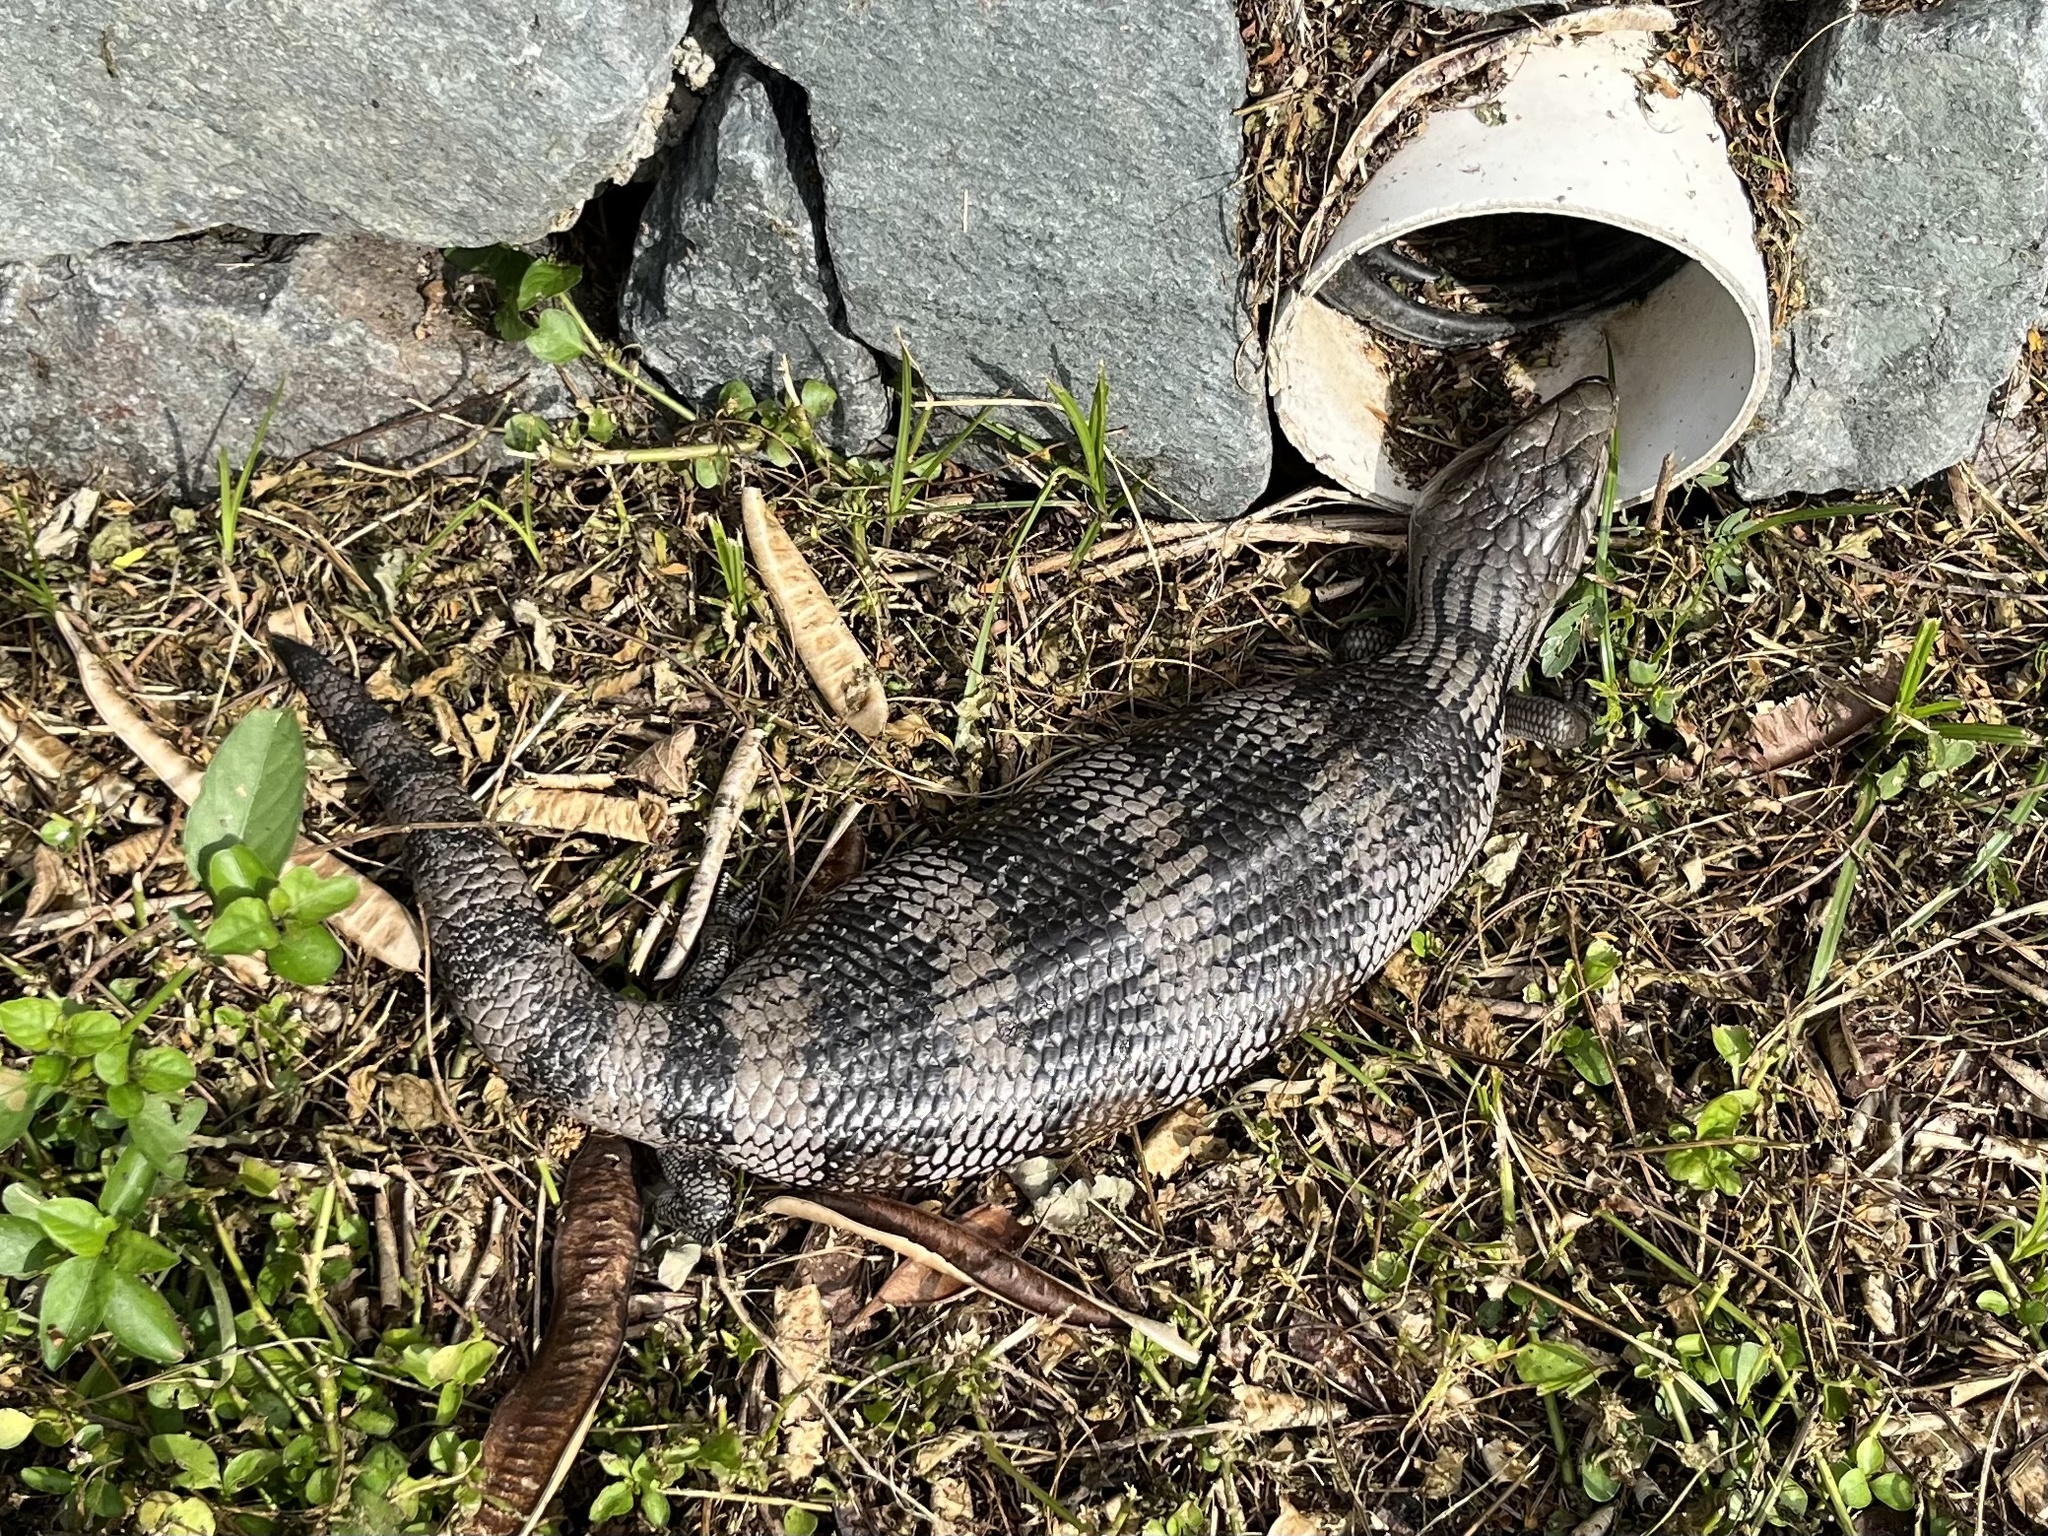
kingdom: Animalia
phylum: Chordata
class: Squamata
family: Scincidae
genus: Tiliqua
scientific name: Tiliqua scincoides
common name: Common bluetongue
